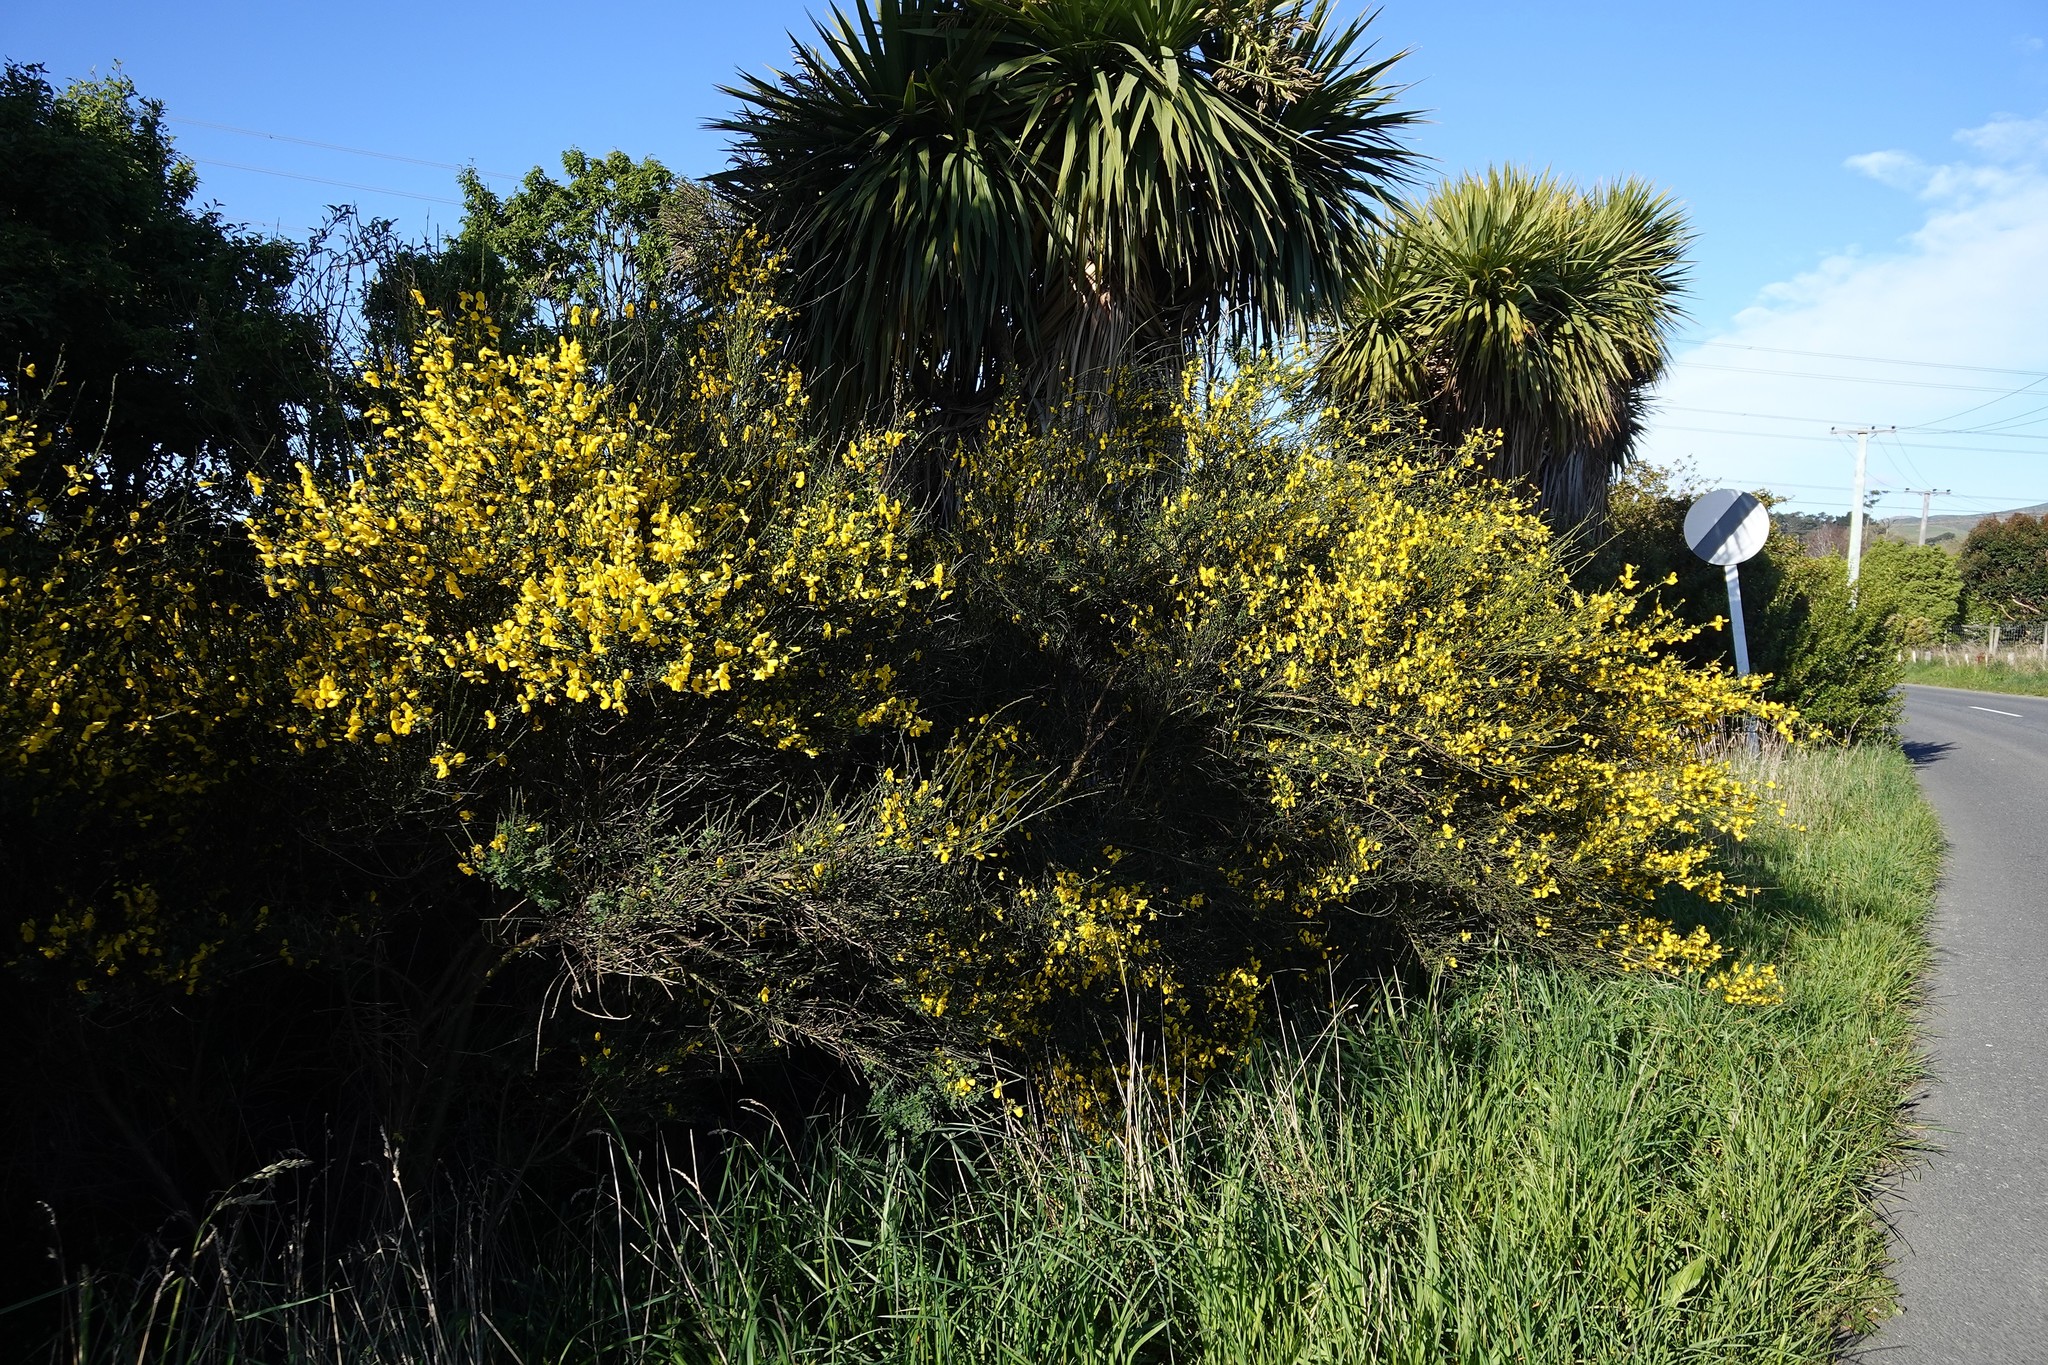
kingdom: Plantae
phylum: Tracheophyta
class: Magnoliopsida
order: Fabales
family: Fabaceae
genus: Cytisus
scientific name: Cytisus scoparius
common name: Scotch broom
